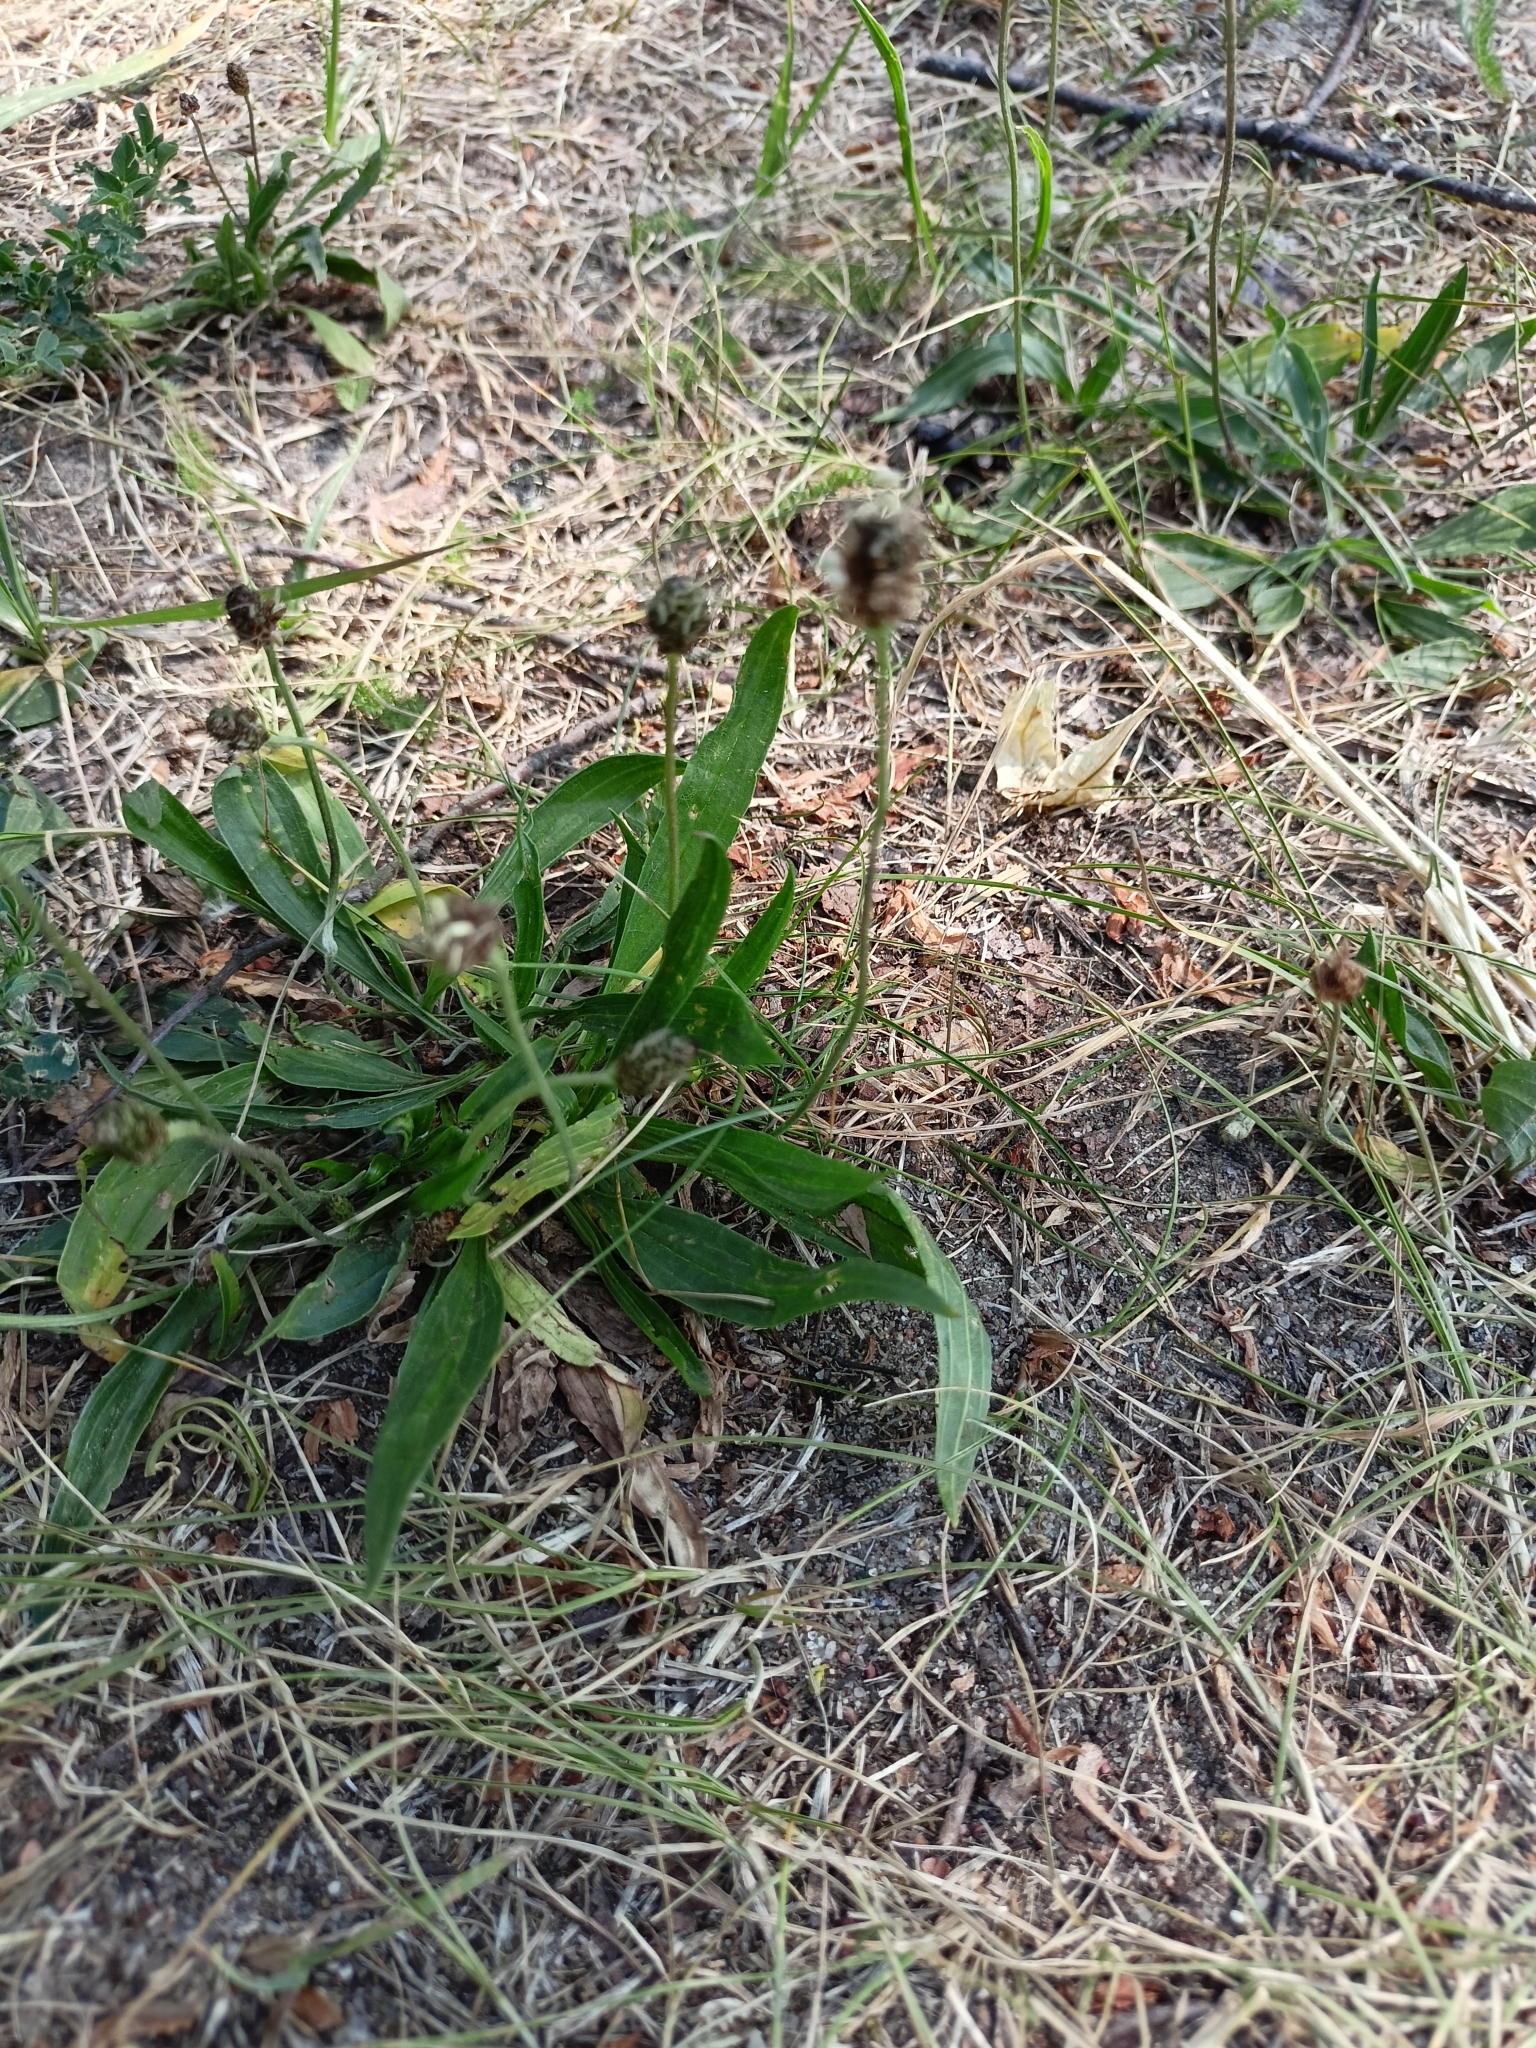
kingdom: Plantae
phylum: Tracheophyta
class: Magnoliopsida
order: Lamiales
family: Plantaginaceae
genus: Plantago
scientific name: Plantago lanceolata
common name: Ribwort plantain
